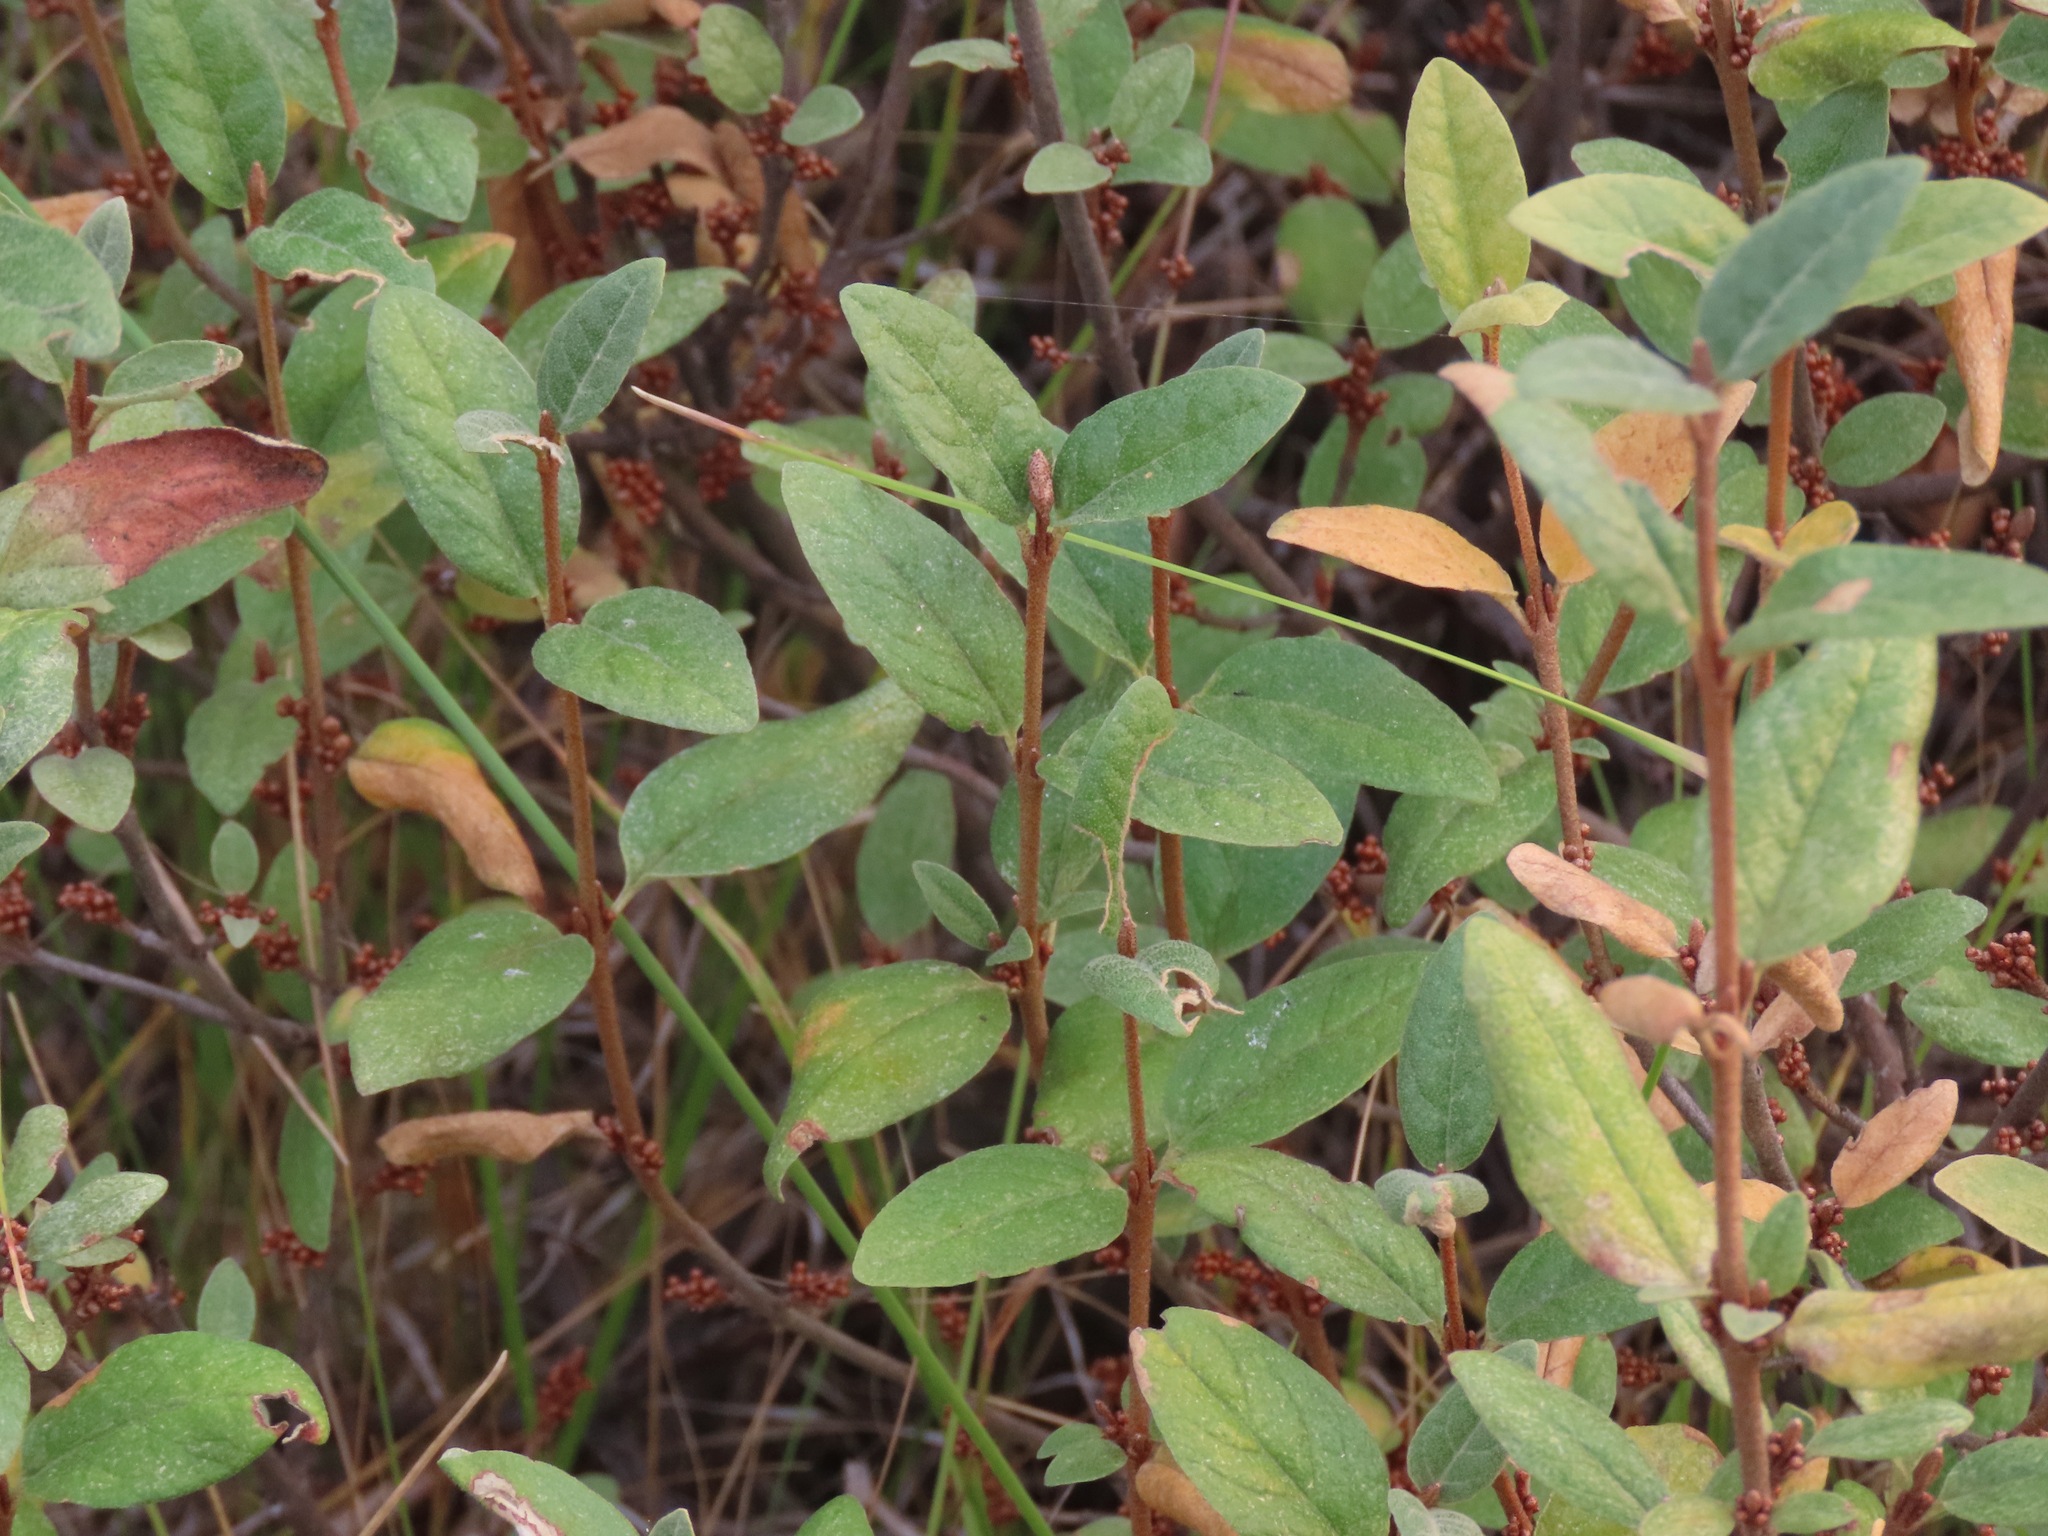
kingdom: Plantae
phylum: Tracheophyta
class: Magnoliopsida
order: Rosales
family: Elaeagnaceae
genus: Shepherdia
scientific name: Shepherdia canadensis
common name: Soapberry
